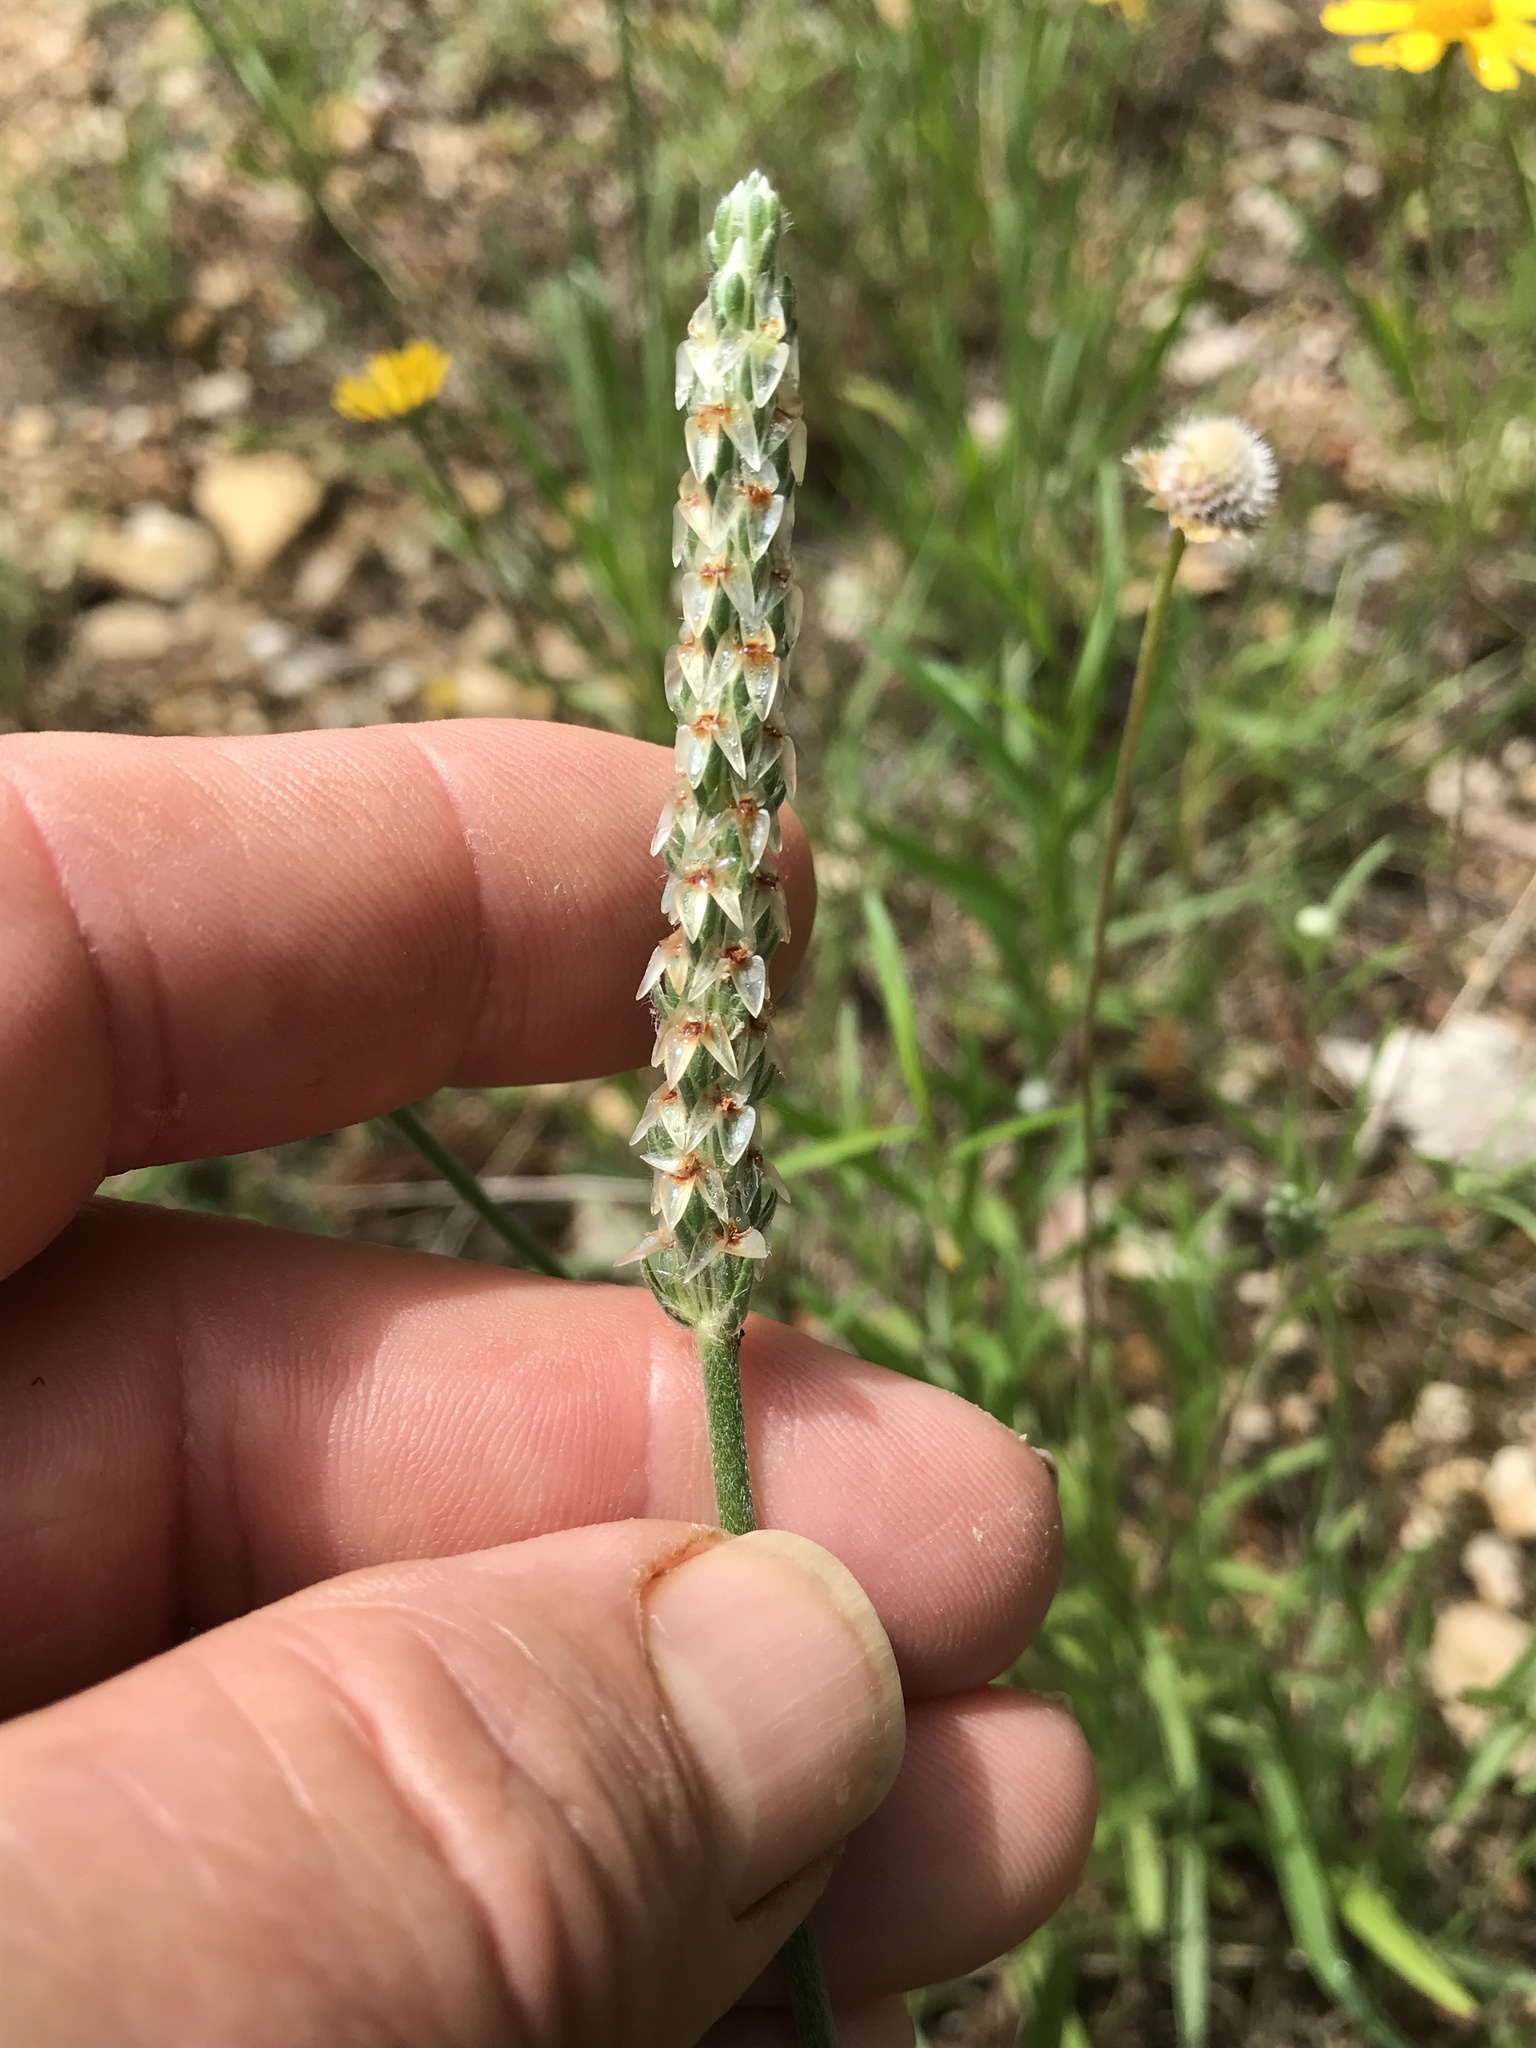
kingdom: Plantae
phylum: Tracheophyta
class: Magnoliopsida
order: Lamiales
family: Plantaginaceae
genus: Plantago
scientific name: Plantago wrightiana
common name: Wright's plantain
